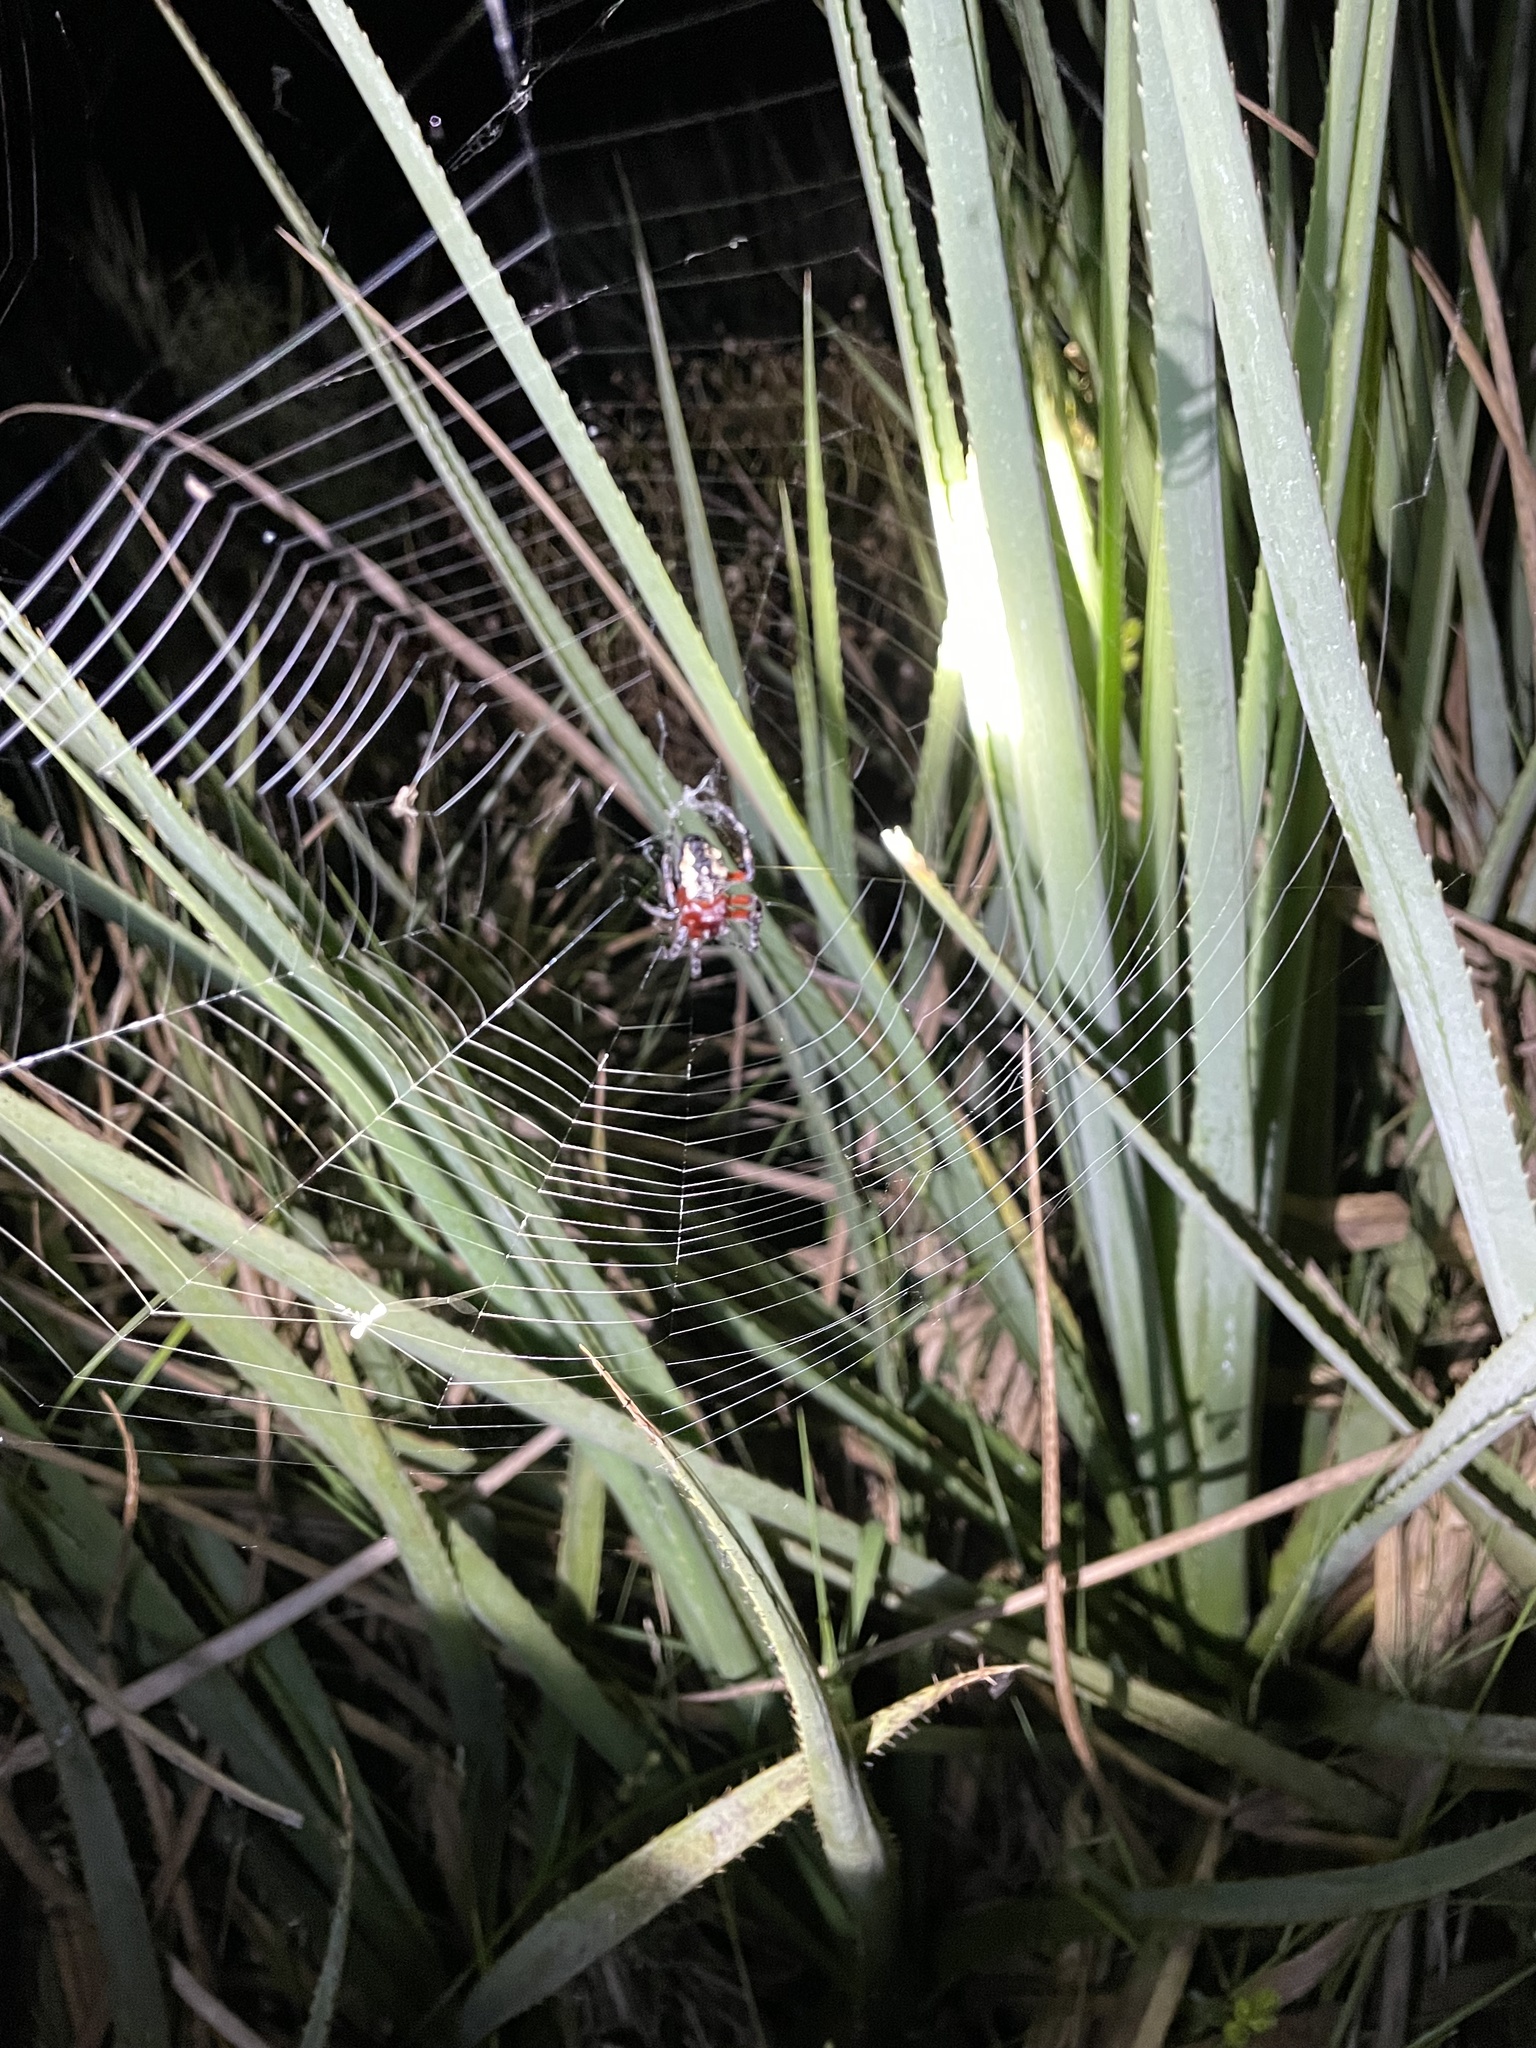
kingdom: Animalia
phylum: Arthropoda
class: Arachnida
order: Araneae
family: Araneidae
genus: Parawixia
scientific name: Parawixia undulata
